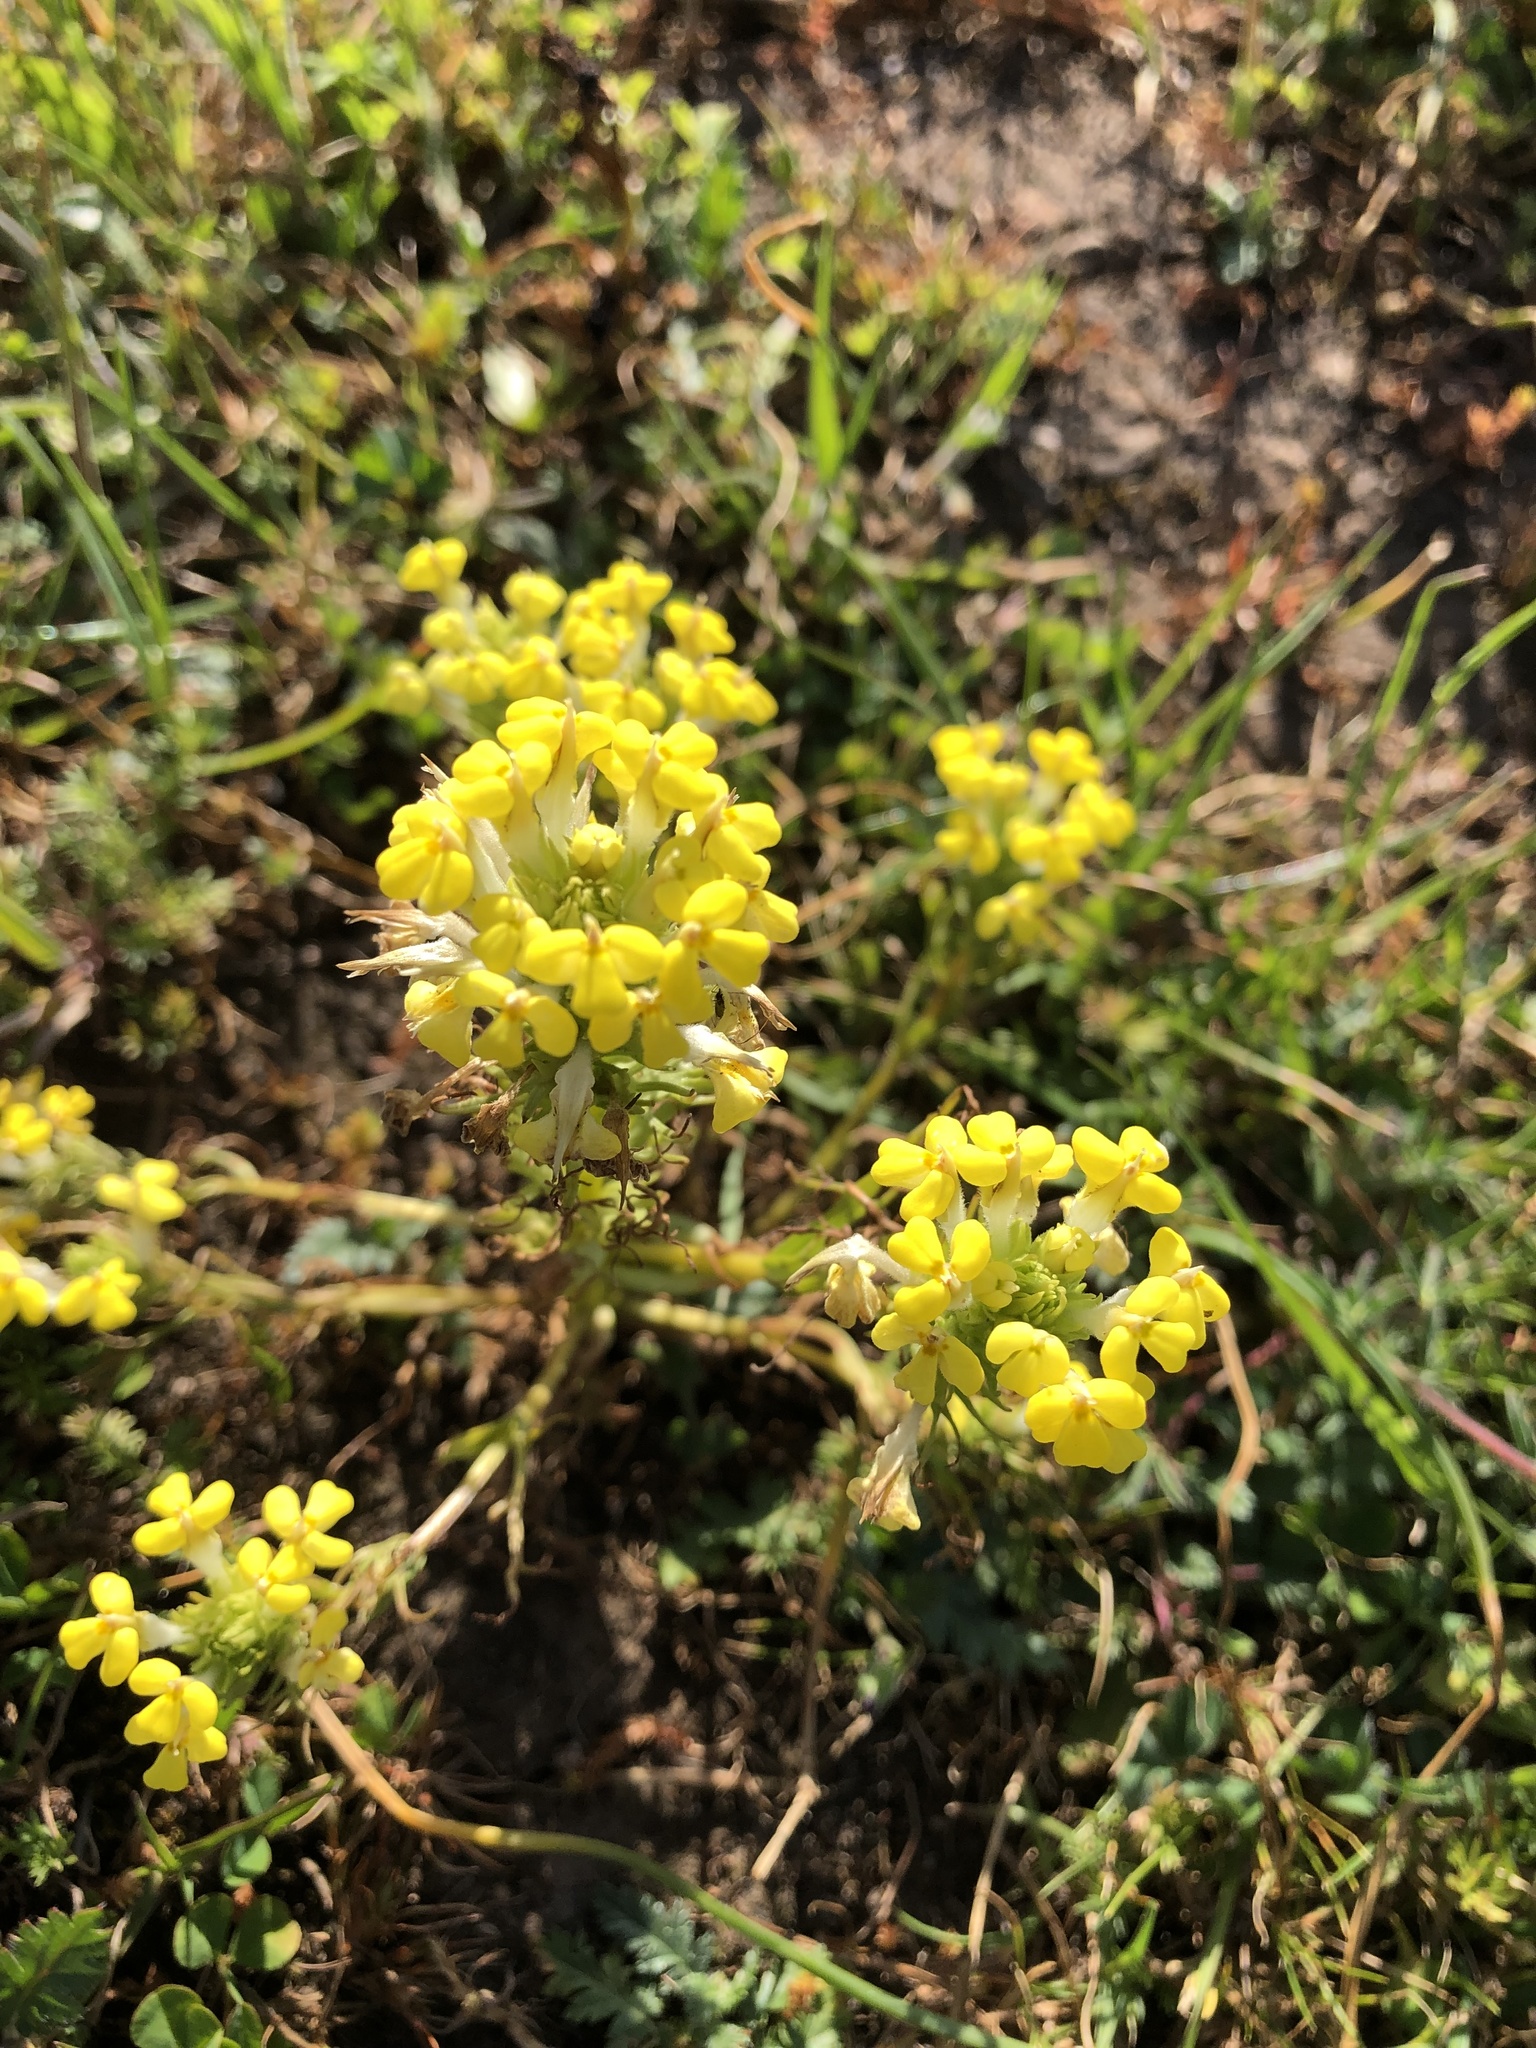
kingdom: Plantae
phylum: Tracheophyta
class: Magnoliopsida
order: Lamiales
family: Orobanchaceae
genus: Triphysaria
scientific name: Triphysaria versicolor
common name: Bearded false owl-clover
